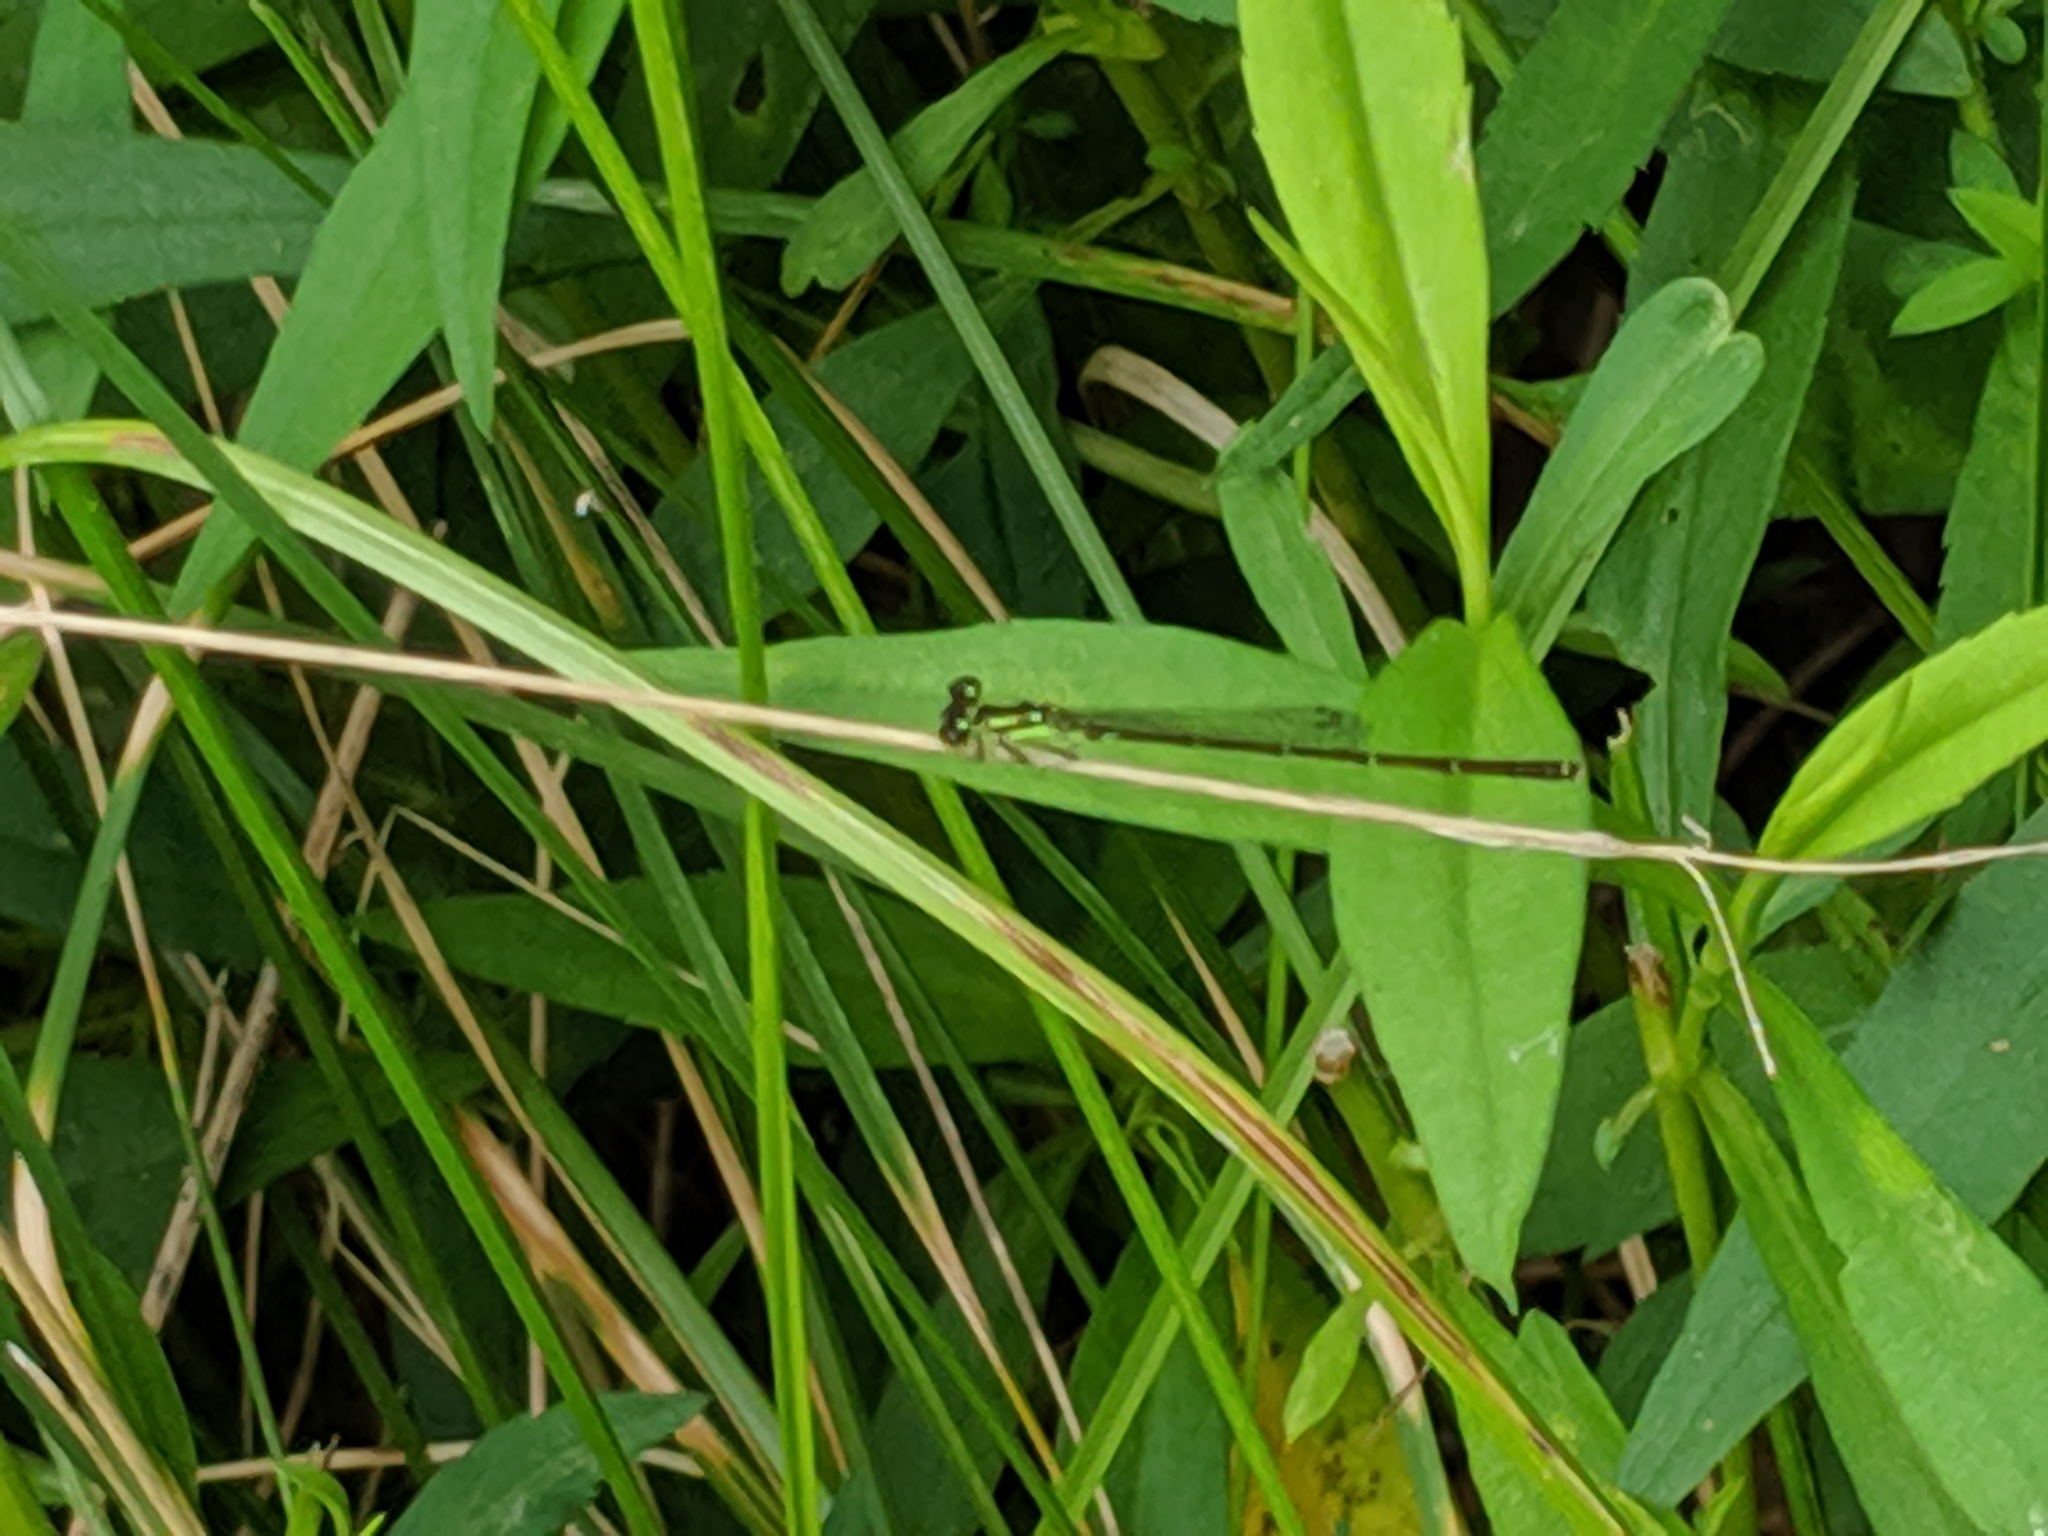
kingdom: Animalia
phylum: Arthropoda
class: Insecta
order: Odonata
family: Coenagrionidae
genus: Ischnura
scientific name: Ischnura posita
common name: Fragile forktail
